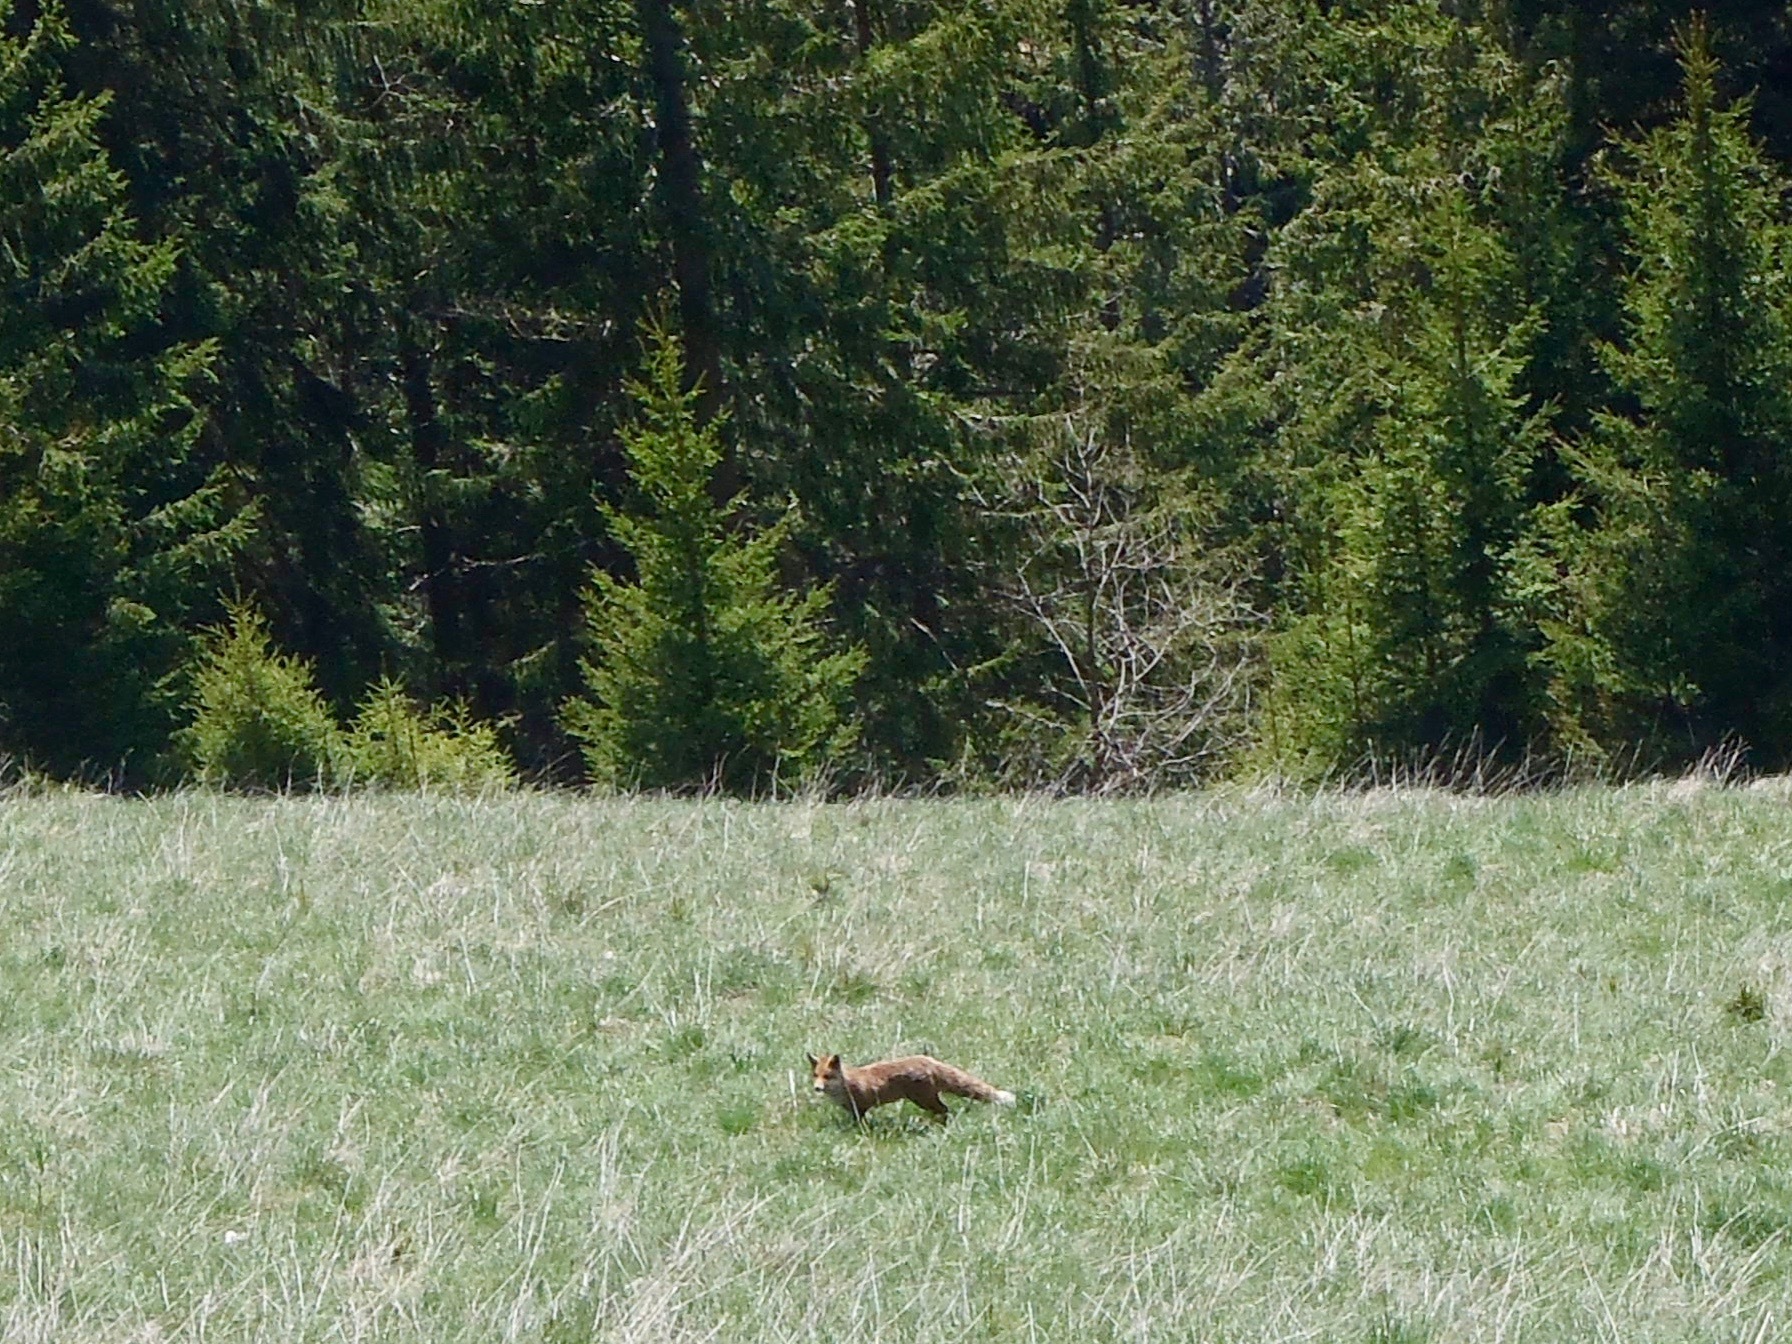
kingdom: Animalia
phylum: Chordata
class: Mammalia
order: Carnivora
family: Canidae
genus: Vulpes
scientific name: Vulpes vulpes
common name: Red fox
